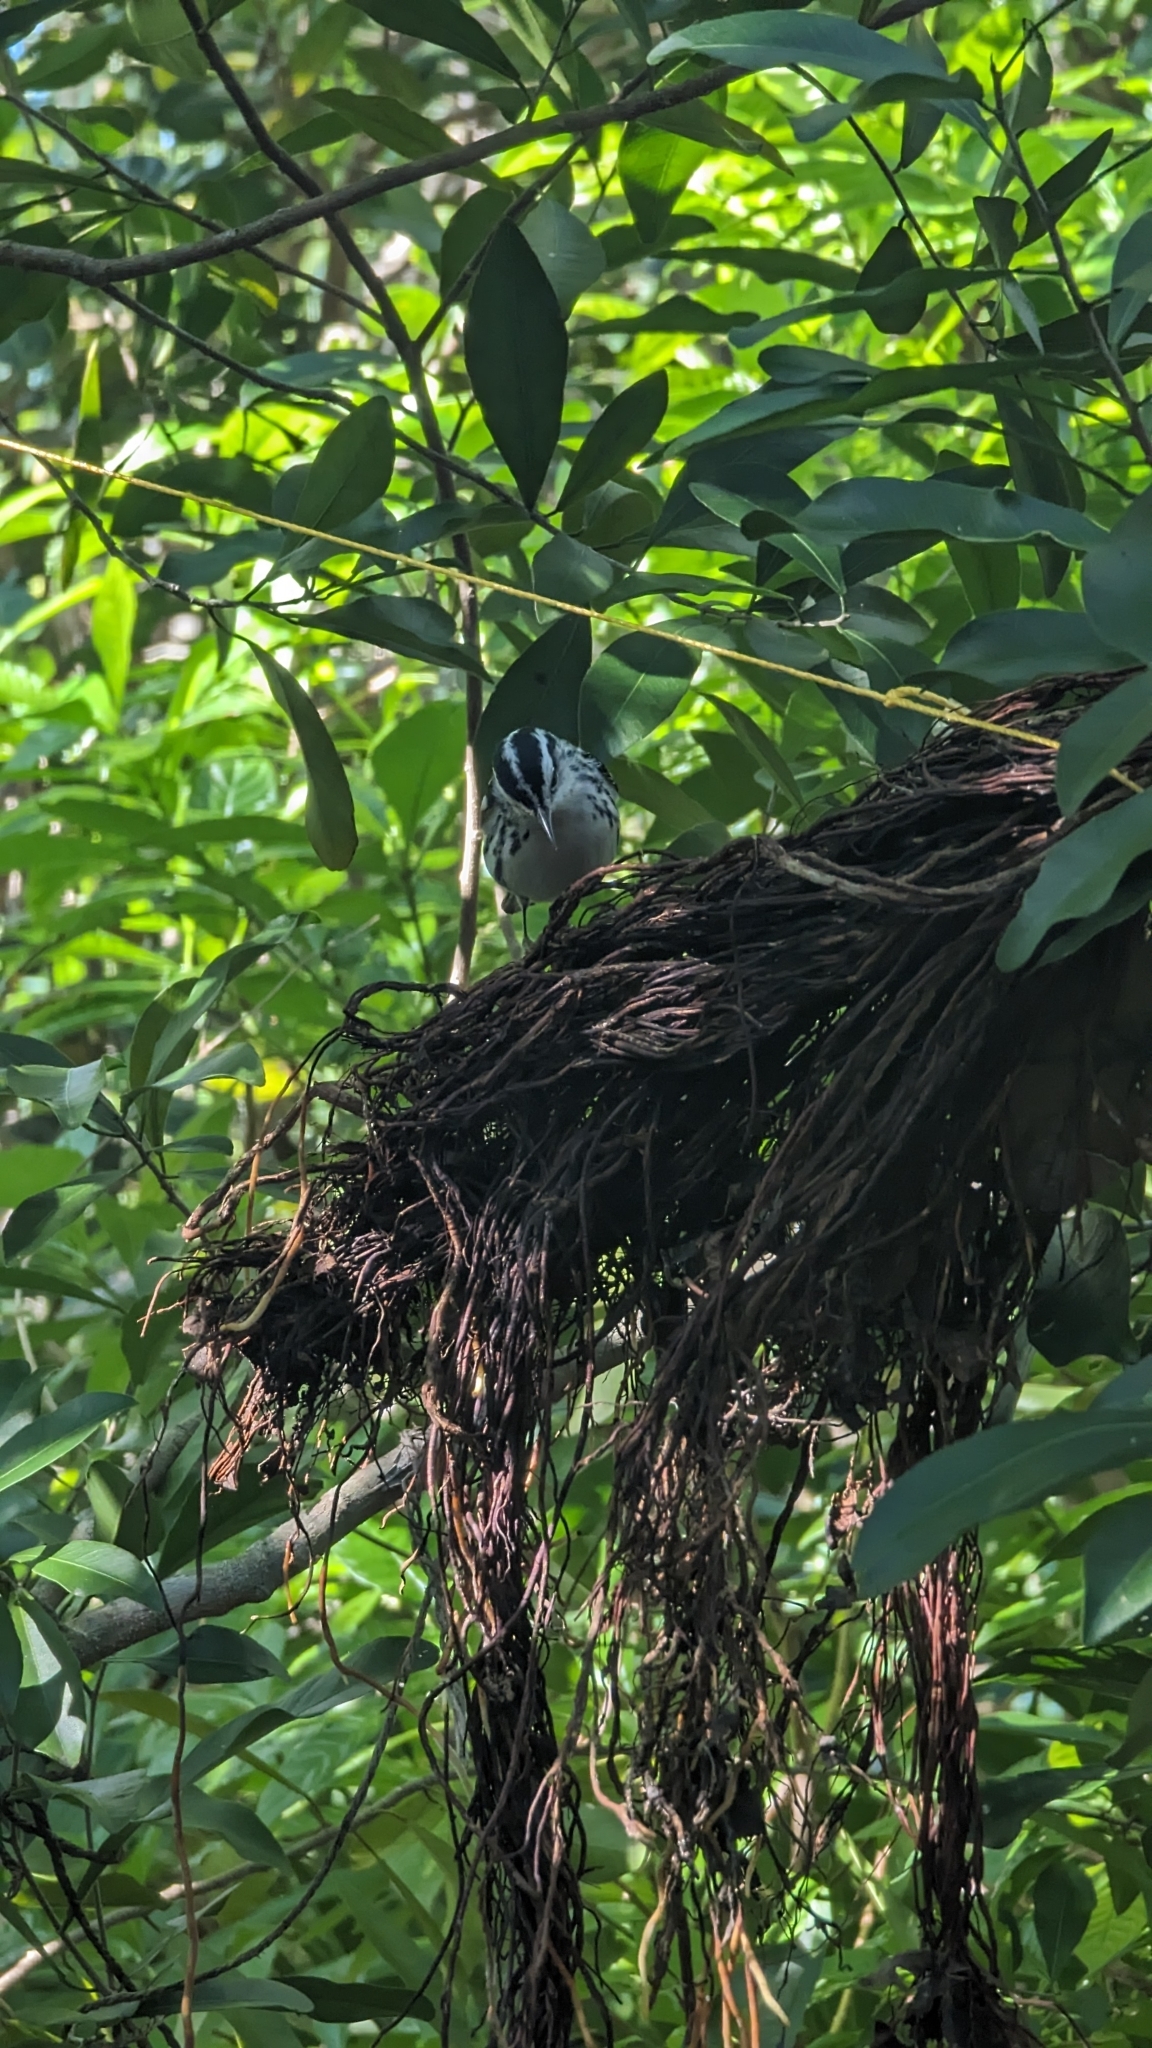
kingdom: Animalia
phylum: Chordata
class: Aves
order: Passeriformes
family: Parulidae
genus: Mniotilta
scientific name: Mniotilta varia
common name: Black-and-white warbler
